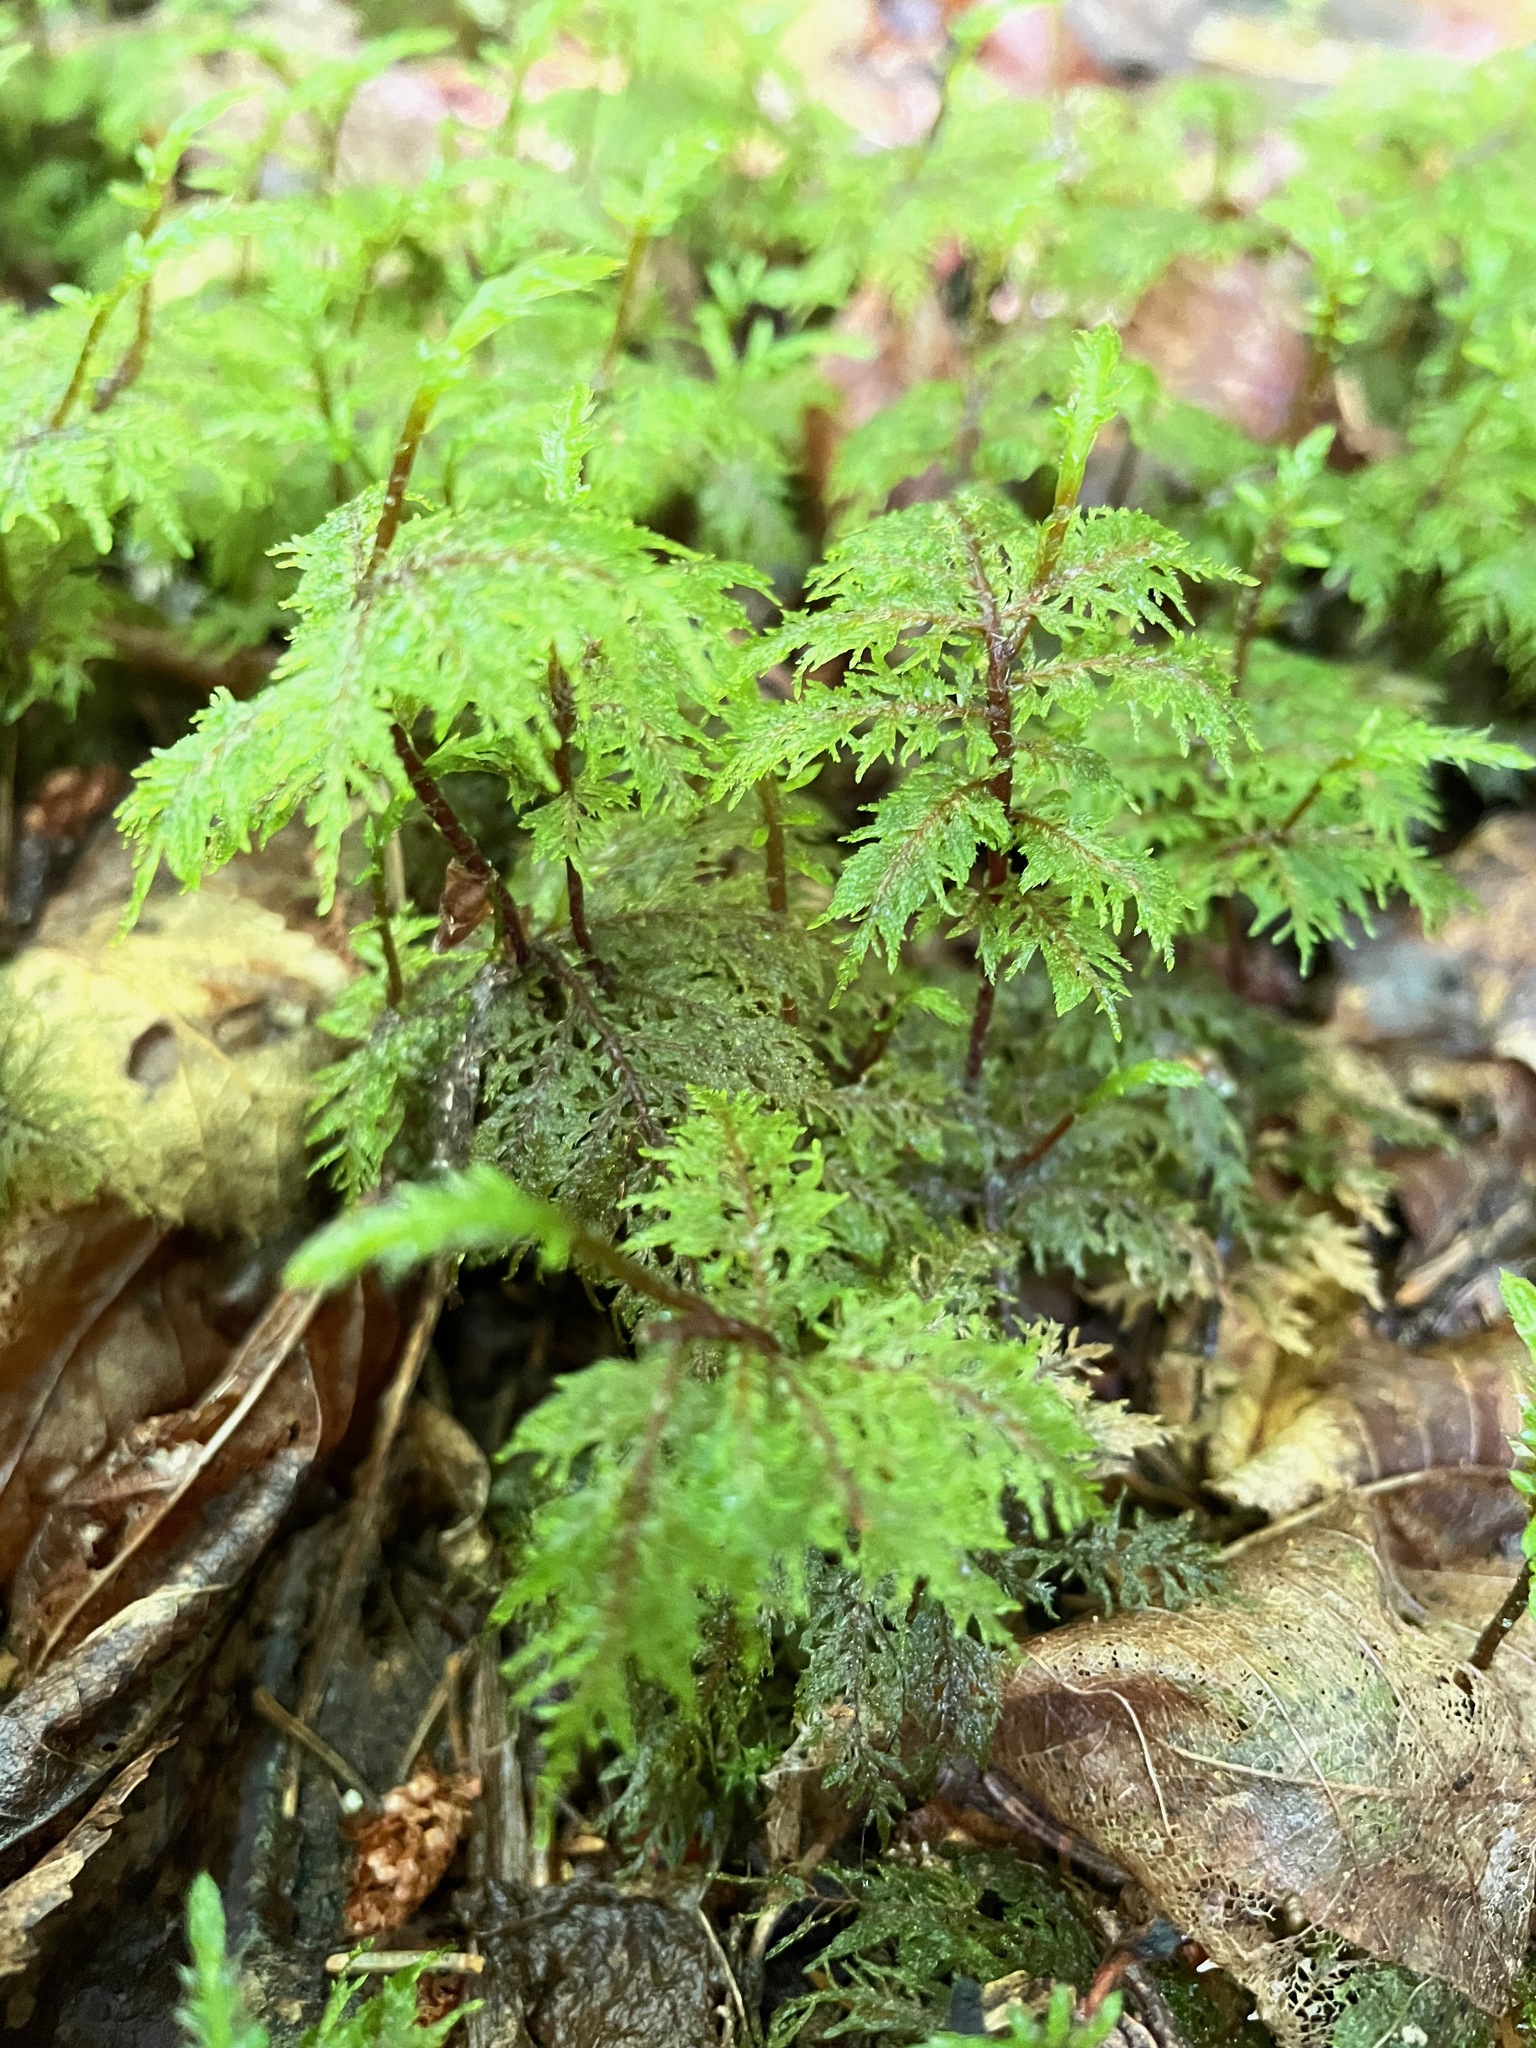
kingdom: Plantae
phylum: Bryophyta
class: Bryopsida
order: Hypnales
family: Hylocomiaceae
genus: Hylocomium
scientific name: Hylocomium splendens
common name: Stairstep moss
